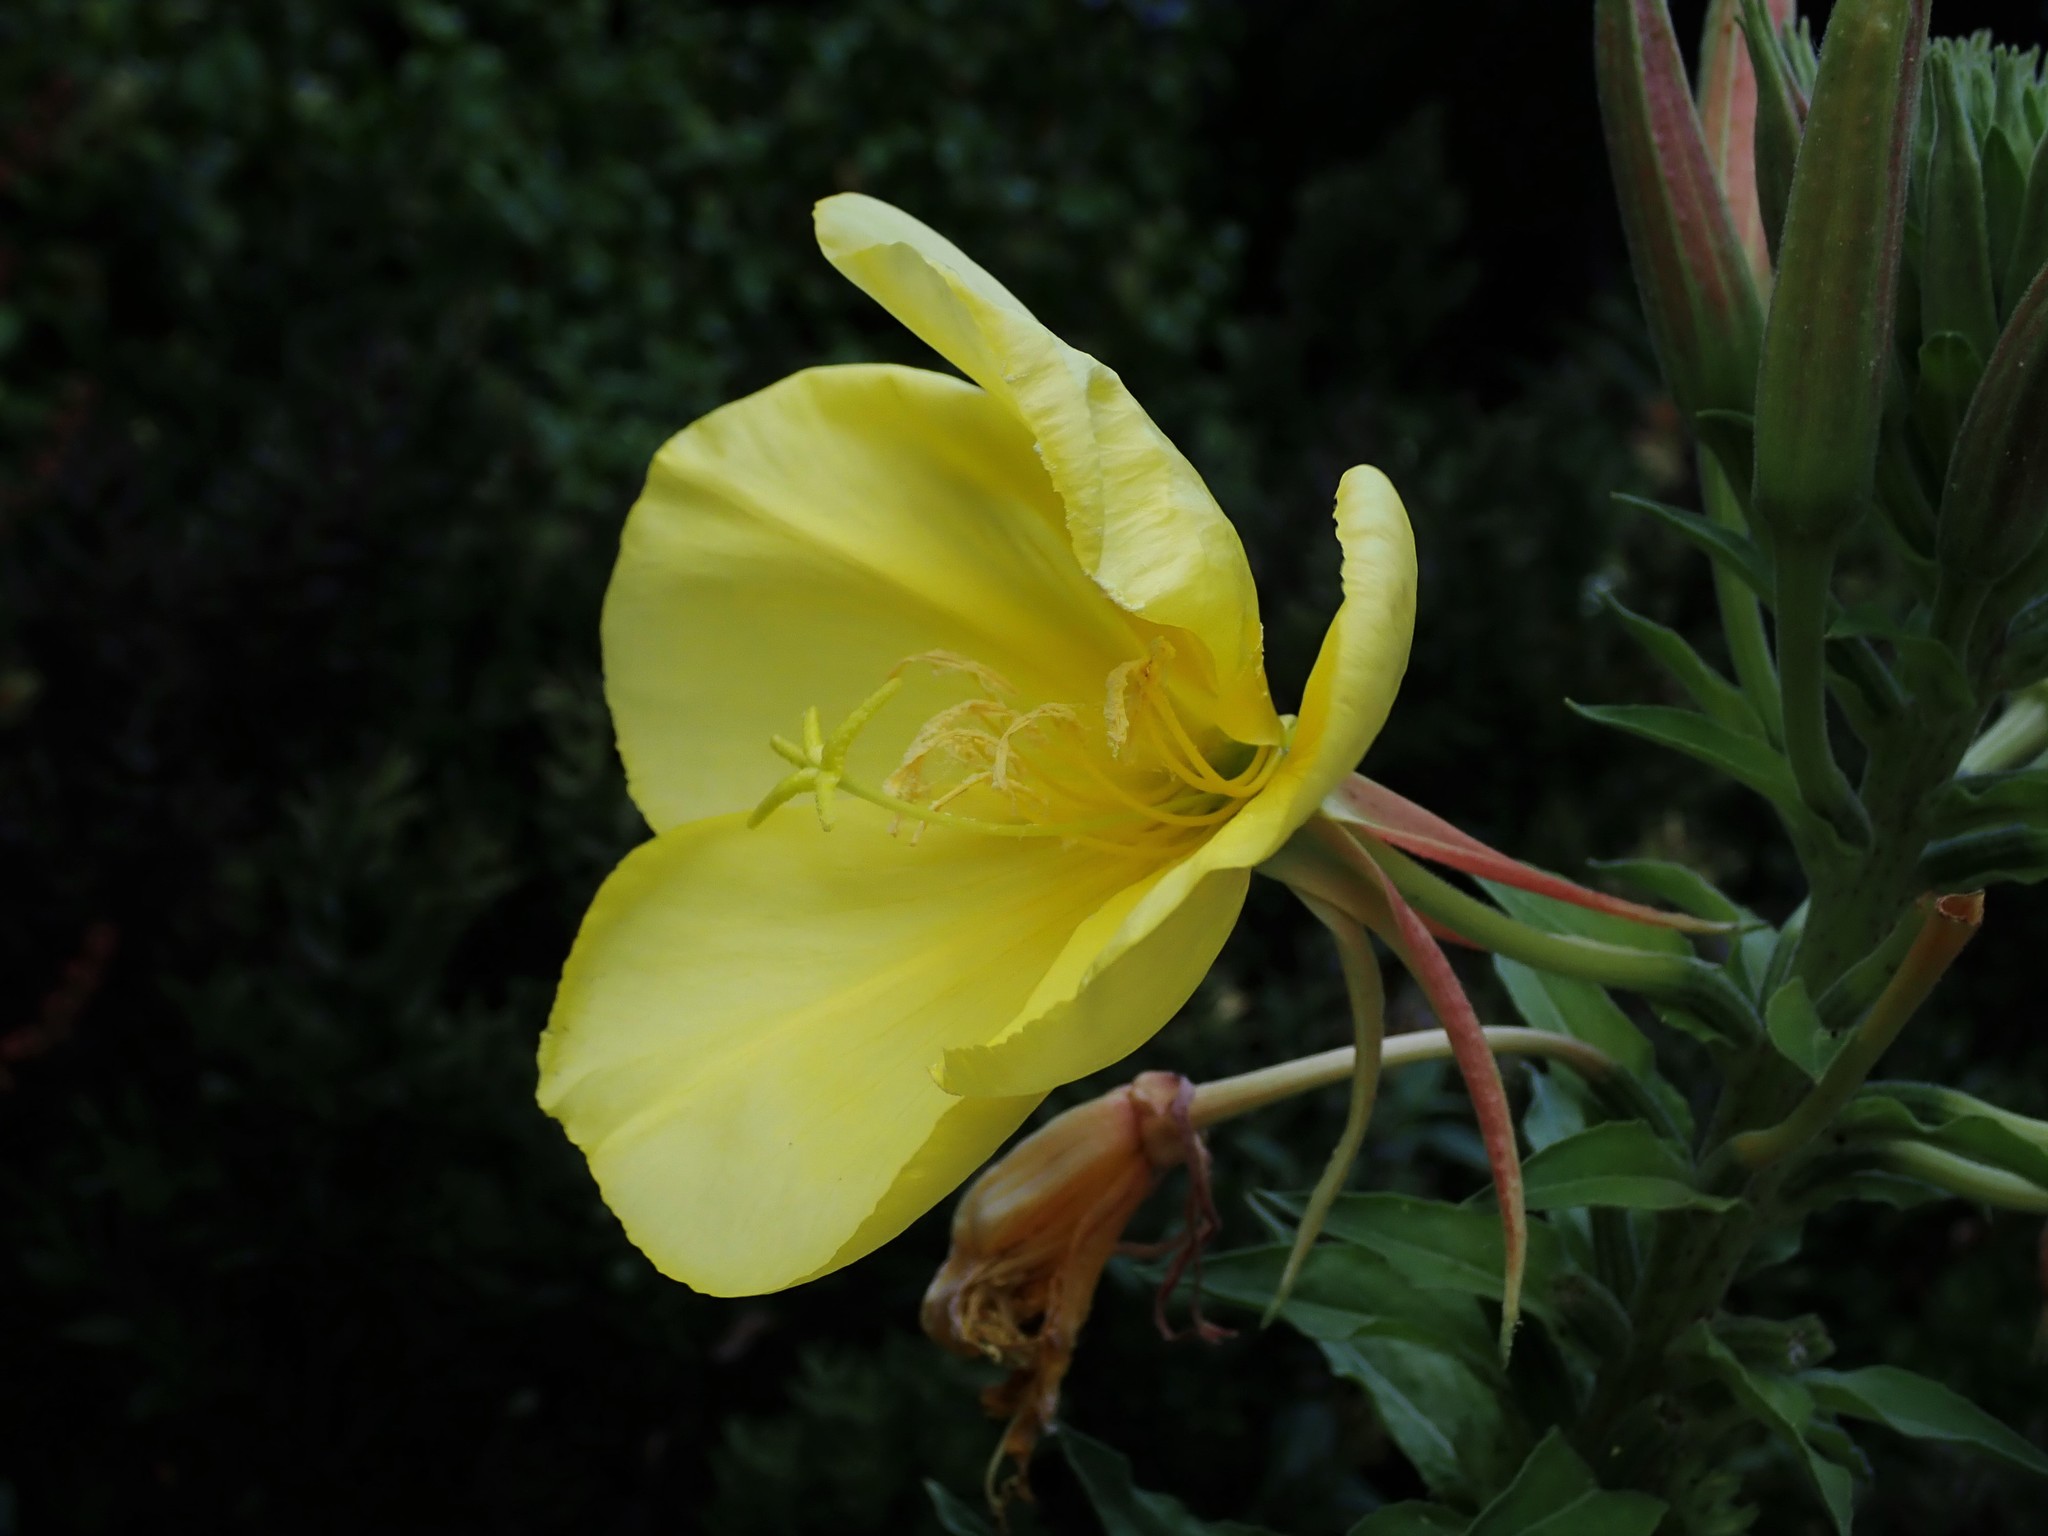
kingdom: Plantae
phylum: Tracheophyta
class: Magnoliopsida
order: Myrtales
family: Onagraceae
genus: Oenothera
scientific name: Oenothera glazioviana
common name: Large-flowered evening-primrose
